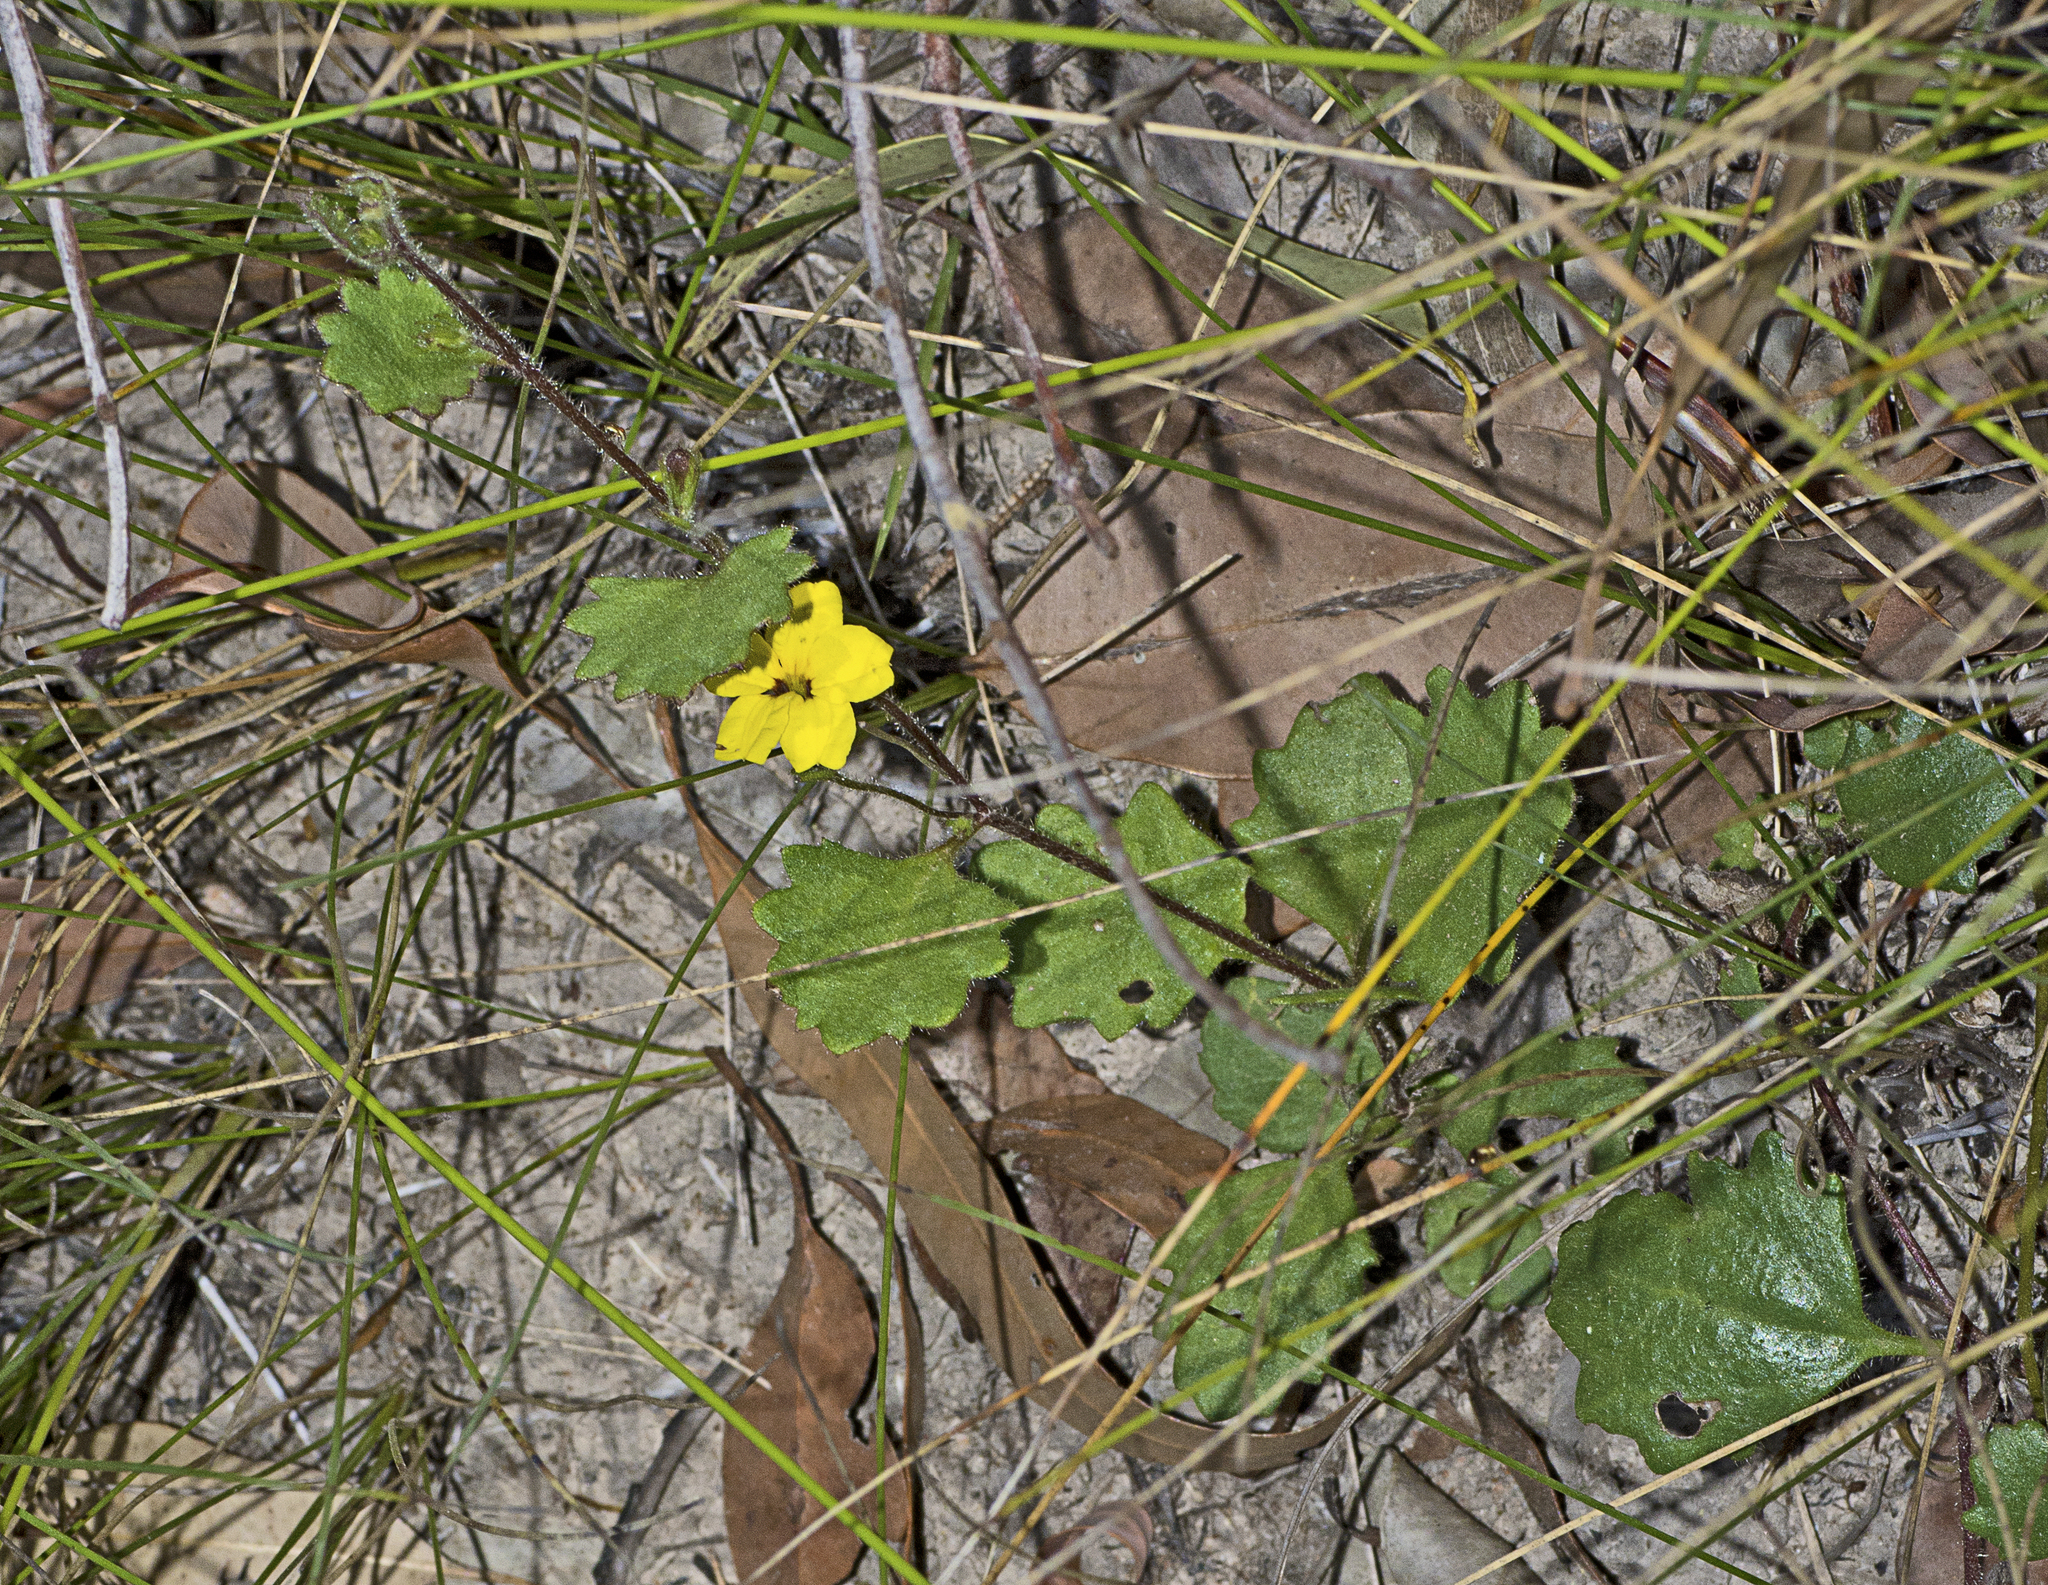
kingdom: Plantae
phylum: Tracheophyta
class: Magnoliopsida
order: Asterales
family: Goodeniaceae
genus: Goodenia
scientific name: Goodenia rotundifolia
